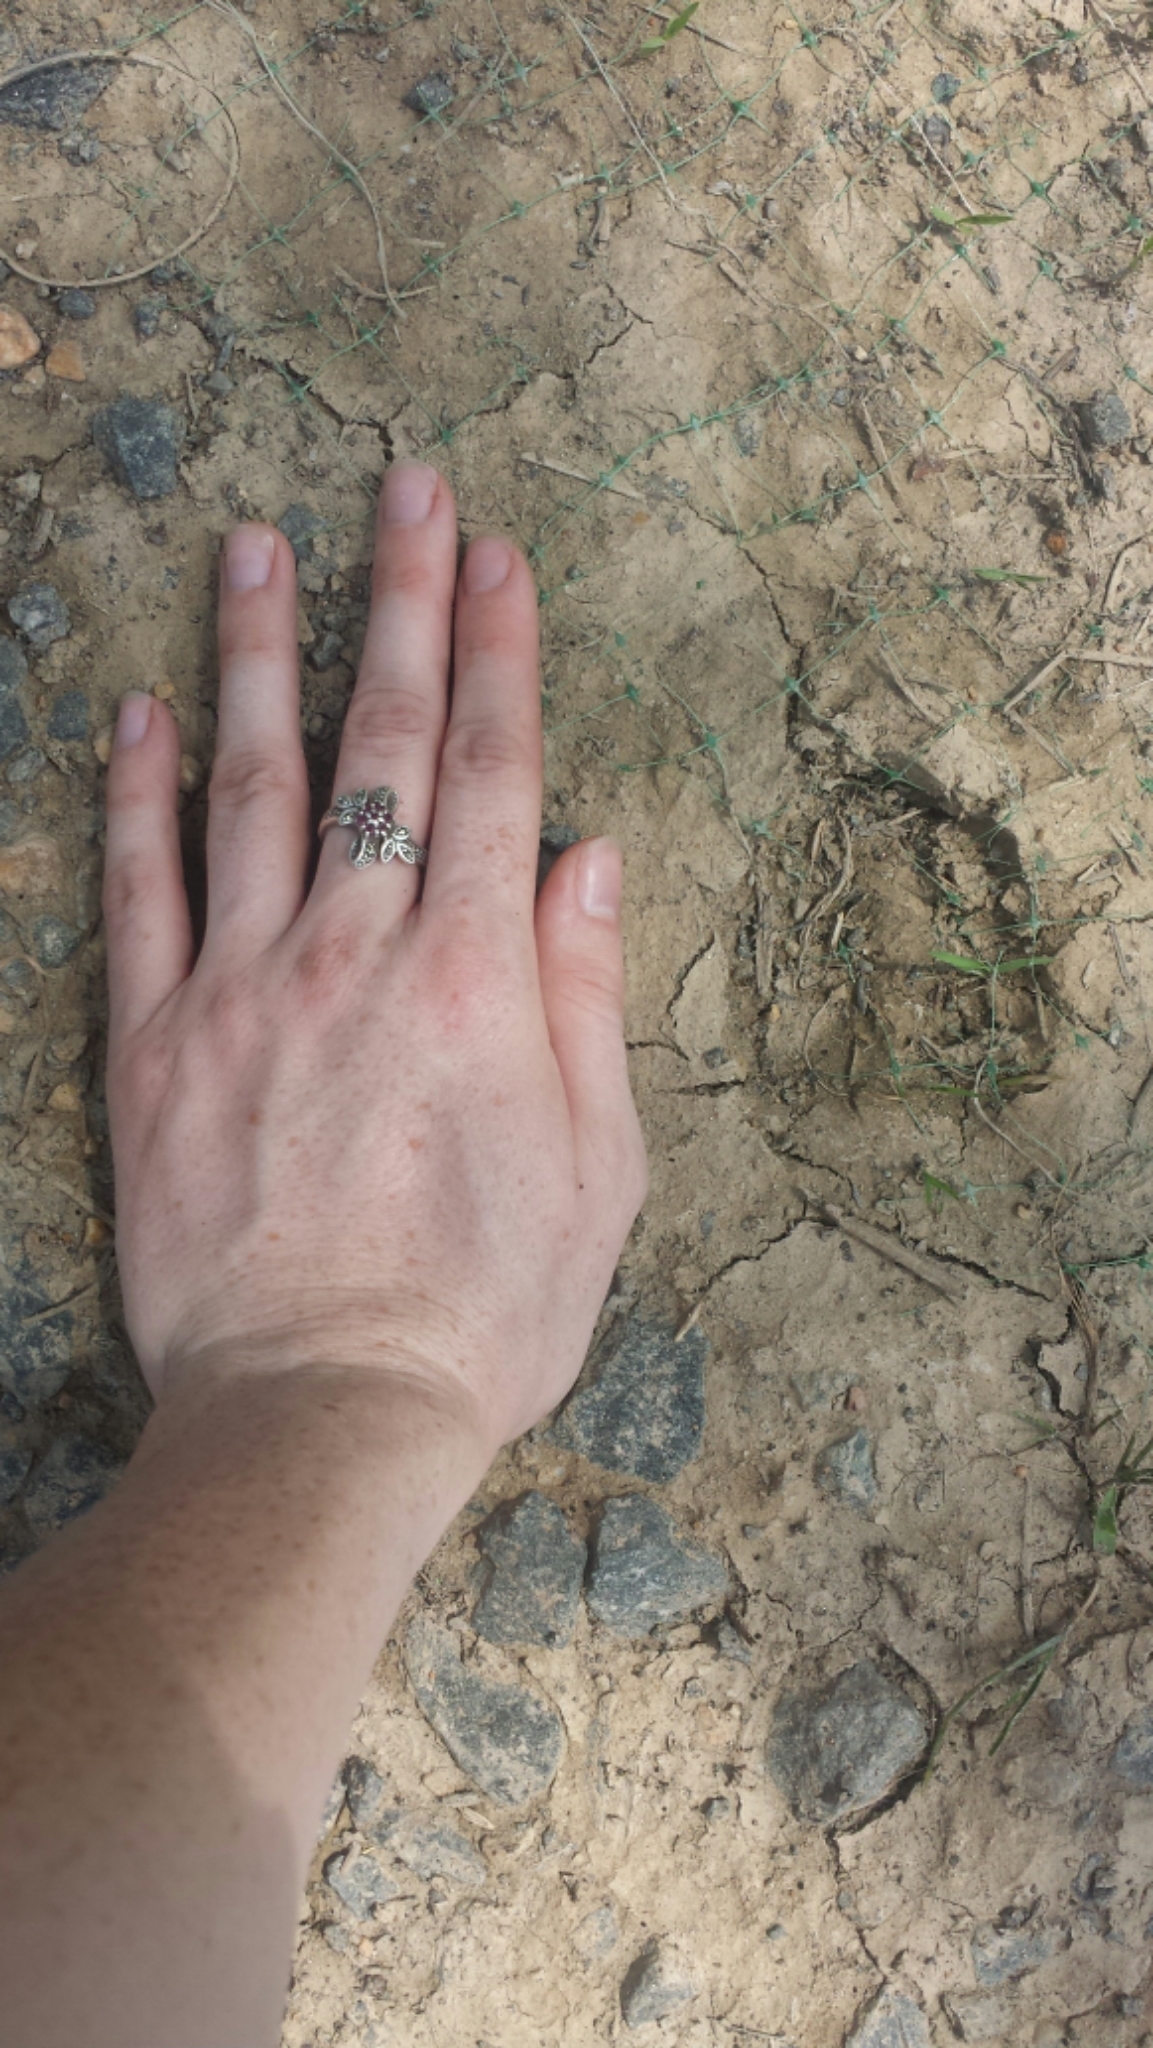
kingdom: Animalia
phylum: Chordata
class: Mammalia
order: Artiodactyla
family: Cervidae
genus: Odocoileus
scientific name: Odocoileus virginianus
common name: White-tailed deer
